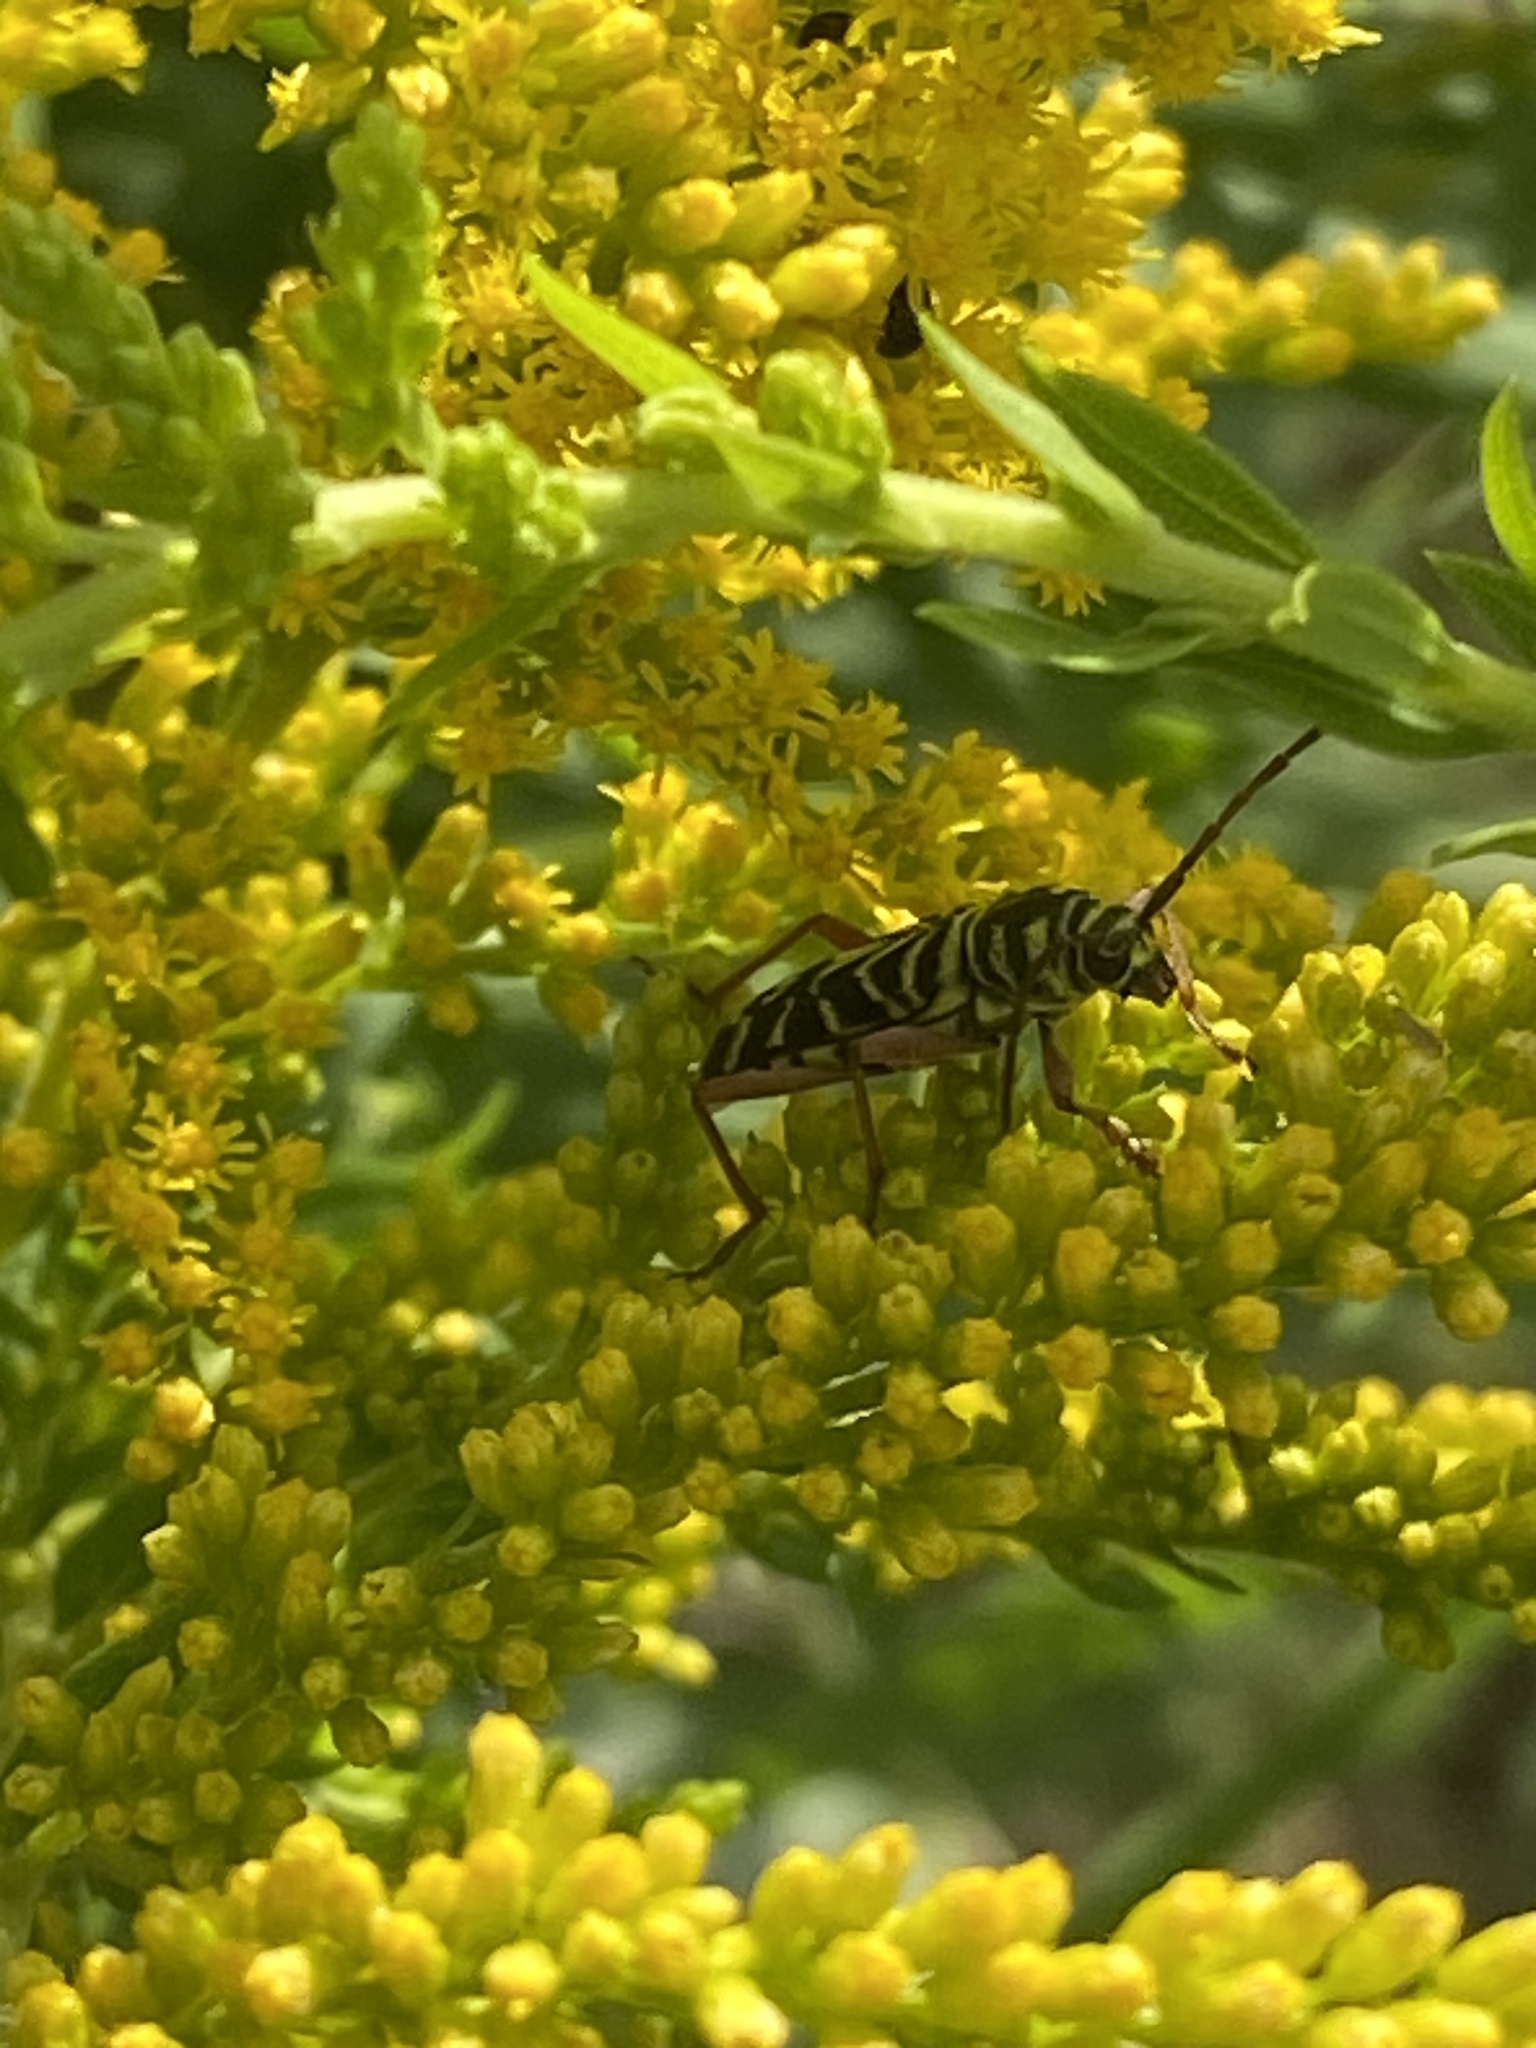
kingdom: Animalia
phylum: Arthropoda
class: Insecta
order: Coleoptera
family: Cerambycidae
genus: Megacyllene
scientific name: Megacyllene robiniae
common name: Locust borer
